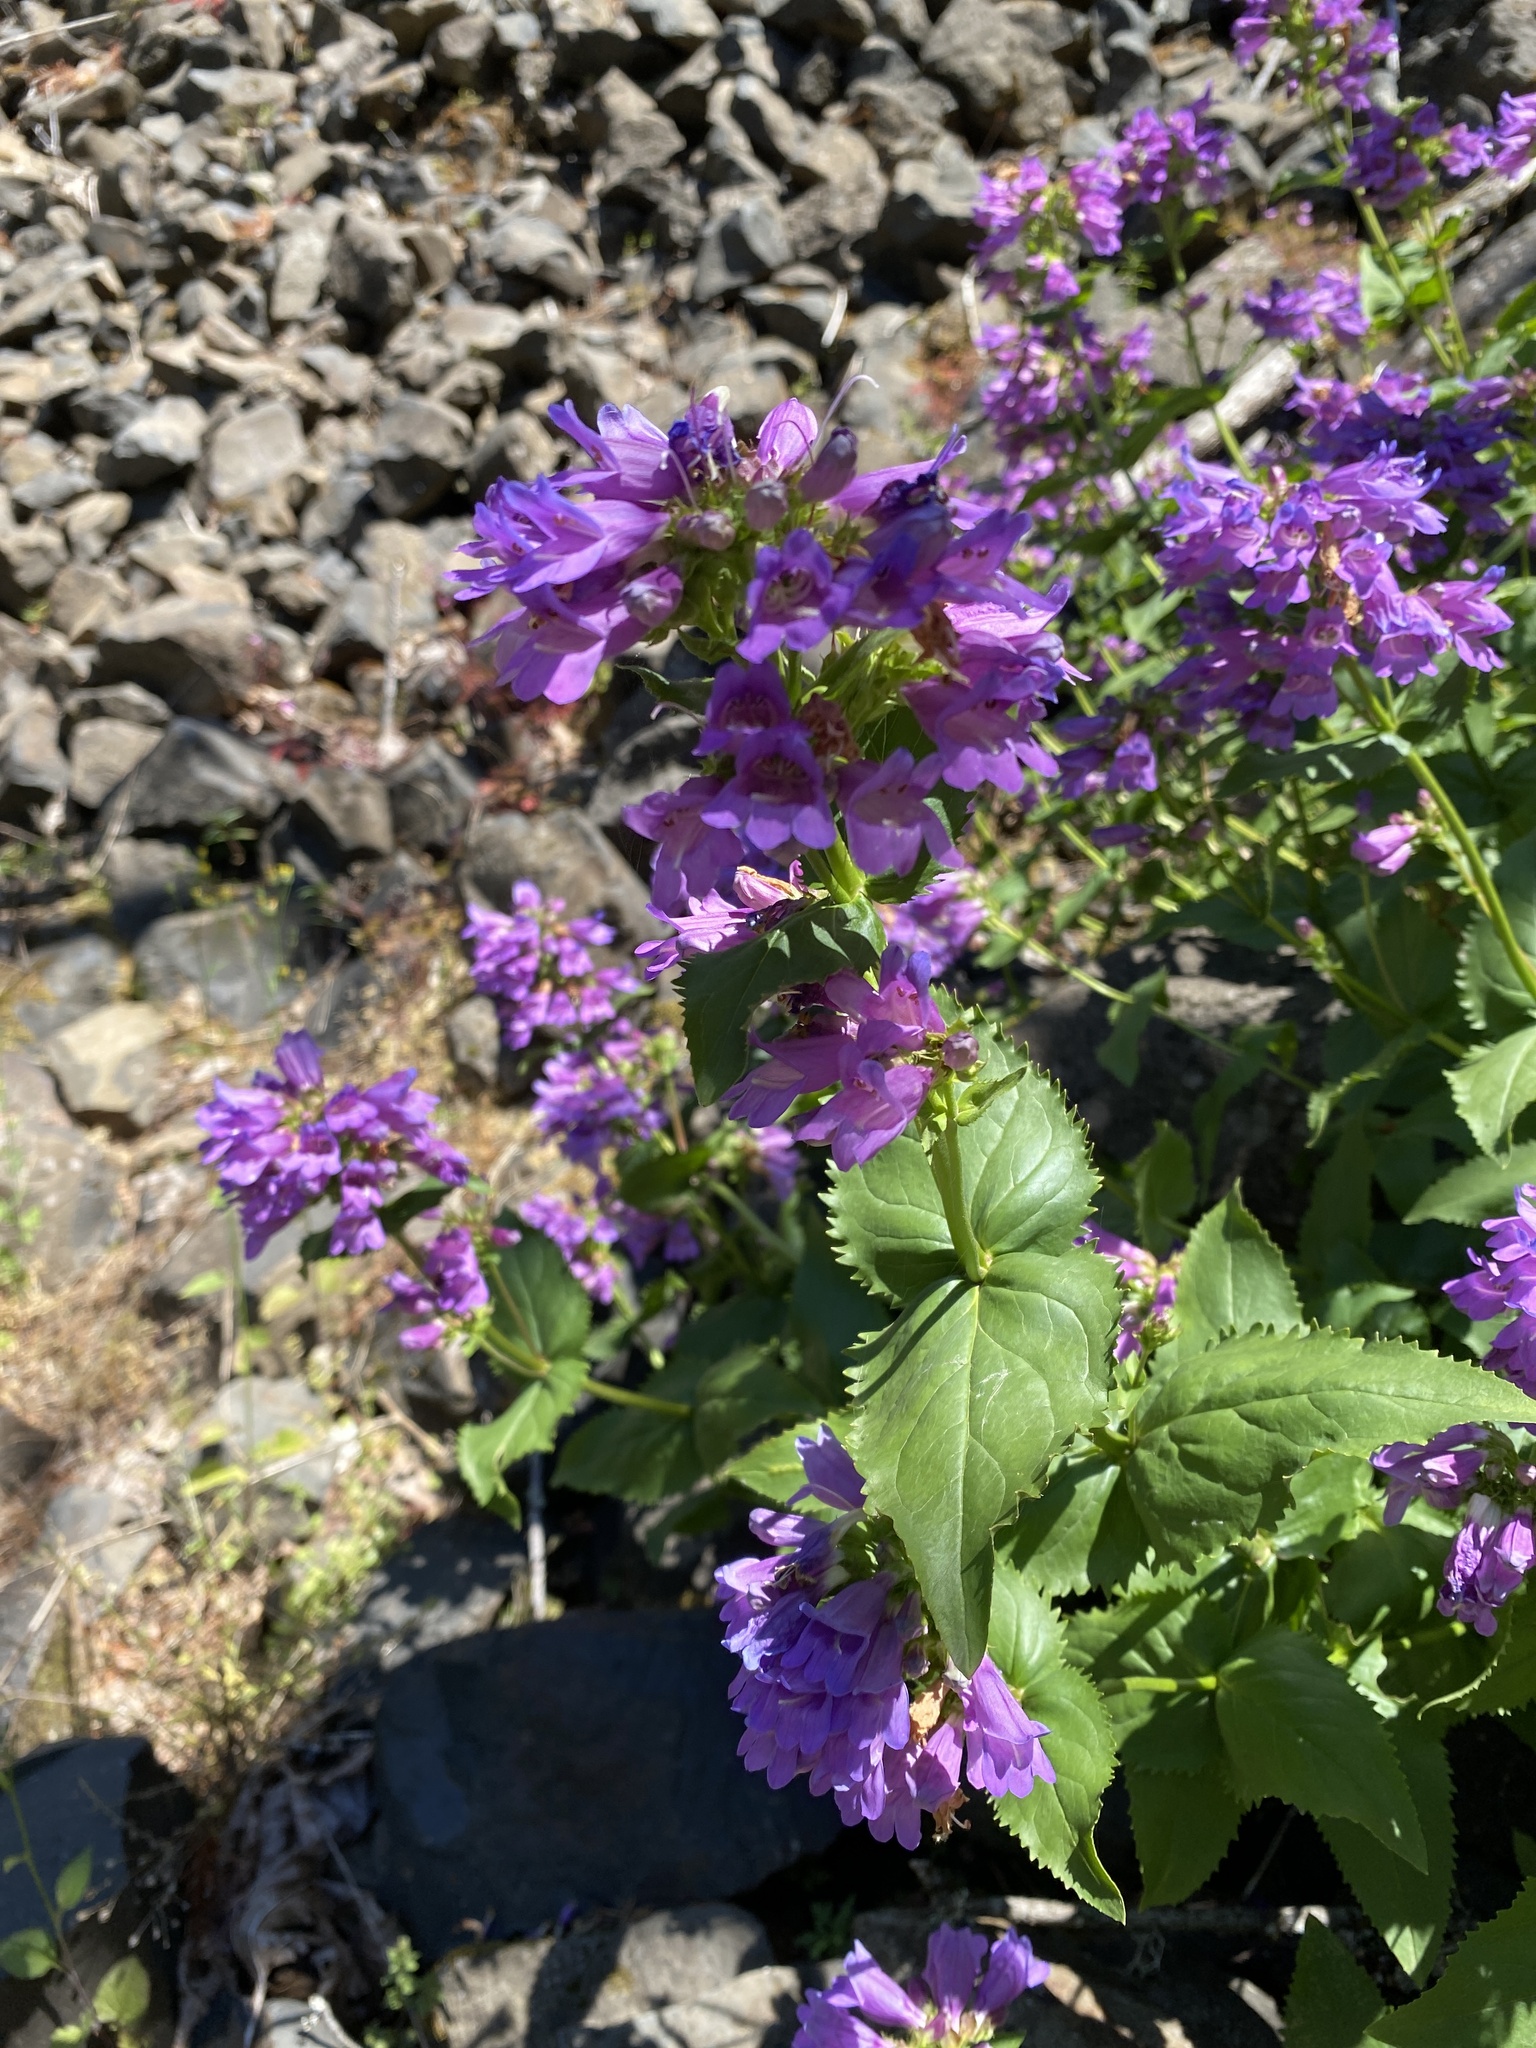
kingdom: Plantae
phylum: Tracheophyta
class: Magnoliopsida
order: Lamiales
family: Plantaginaceae
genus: Penstemon
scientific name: Penstemon serrulatus
